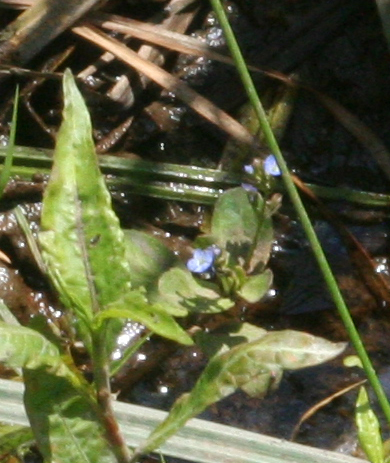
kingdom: Plantae
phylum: Tracheophyta
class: Magnoliopsida
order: Lamiales
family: Plantaginaceae
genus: Veronica
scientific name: Veronica beccabunga
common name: Brooklime
